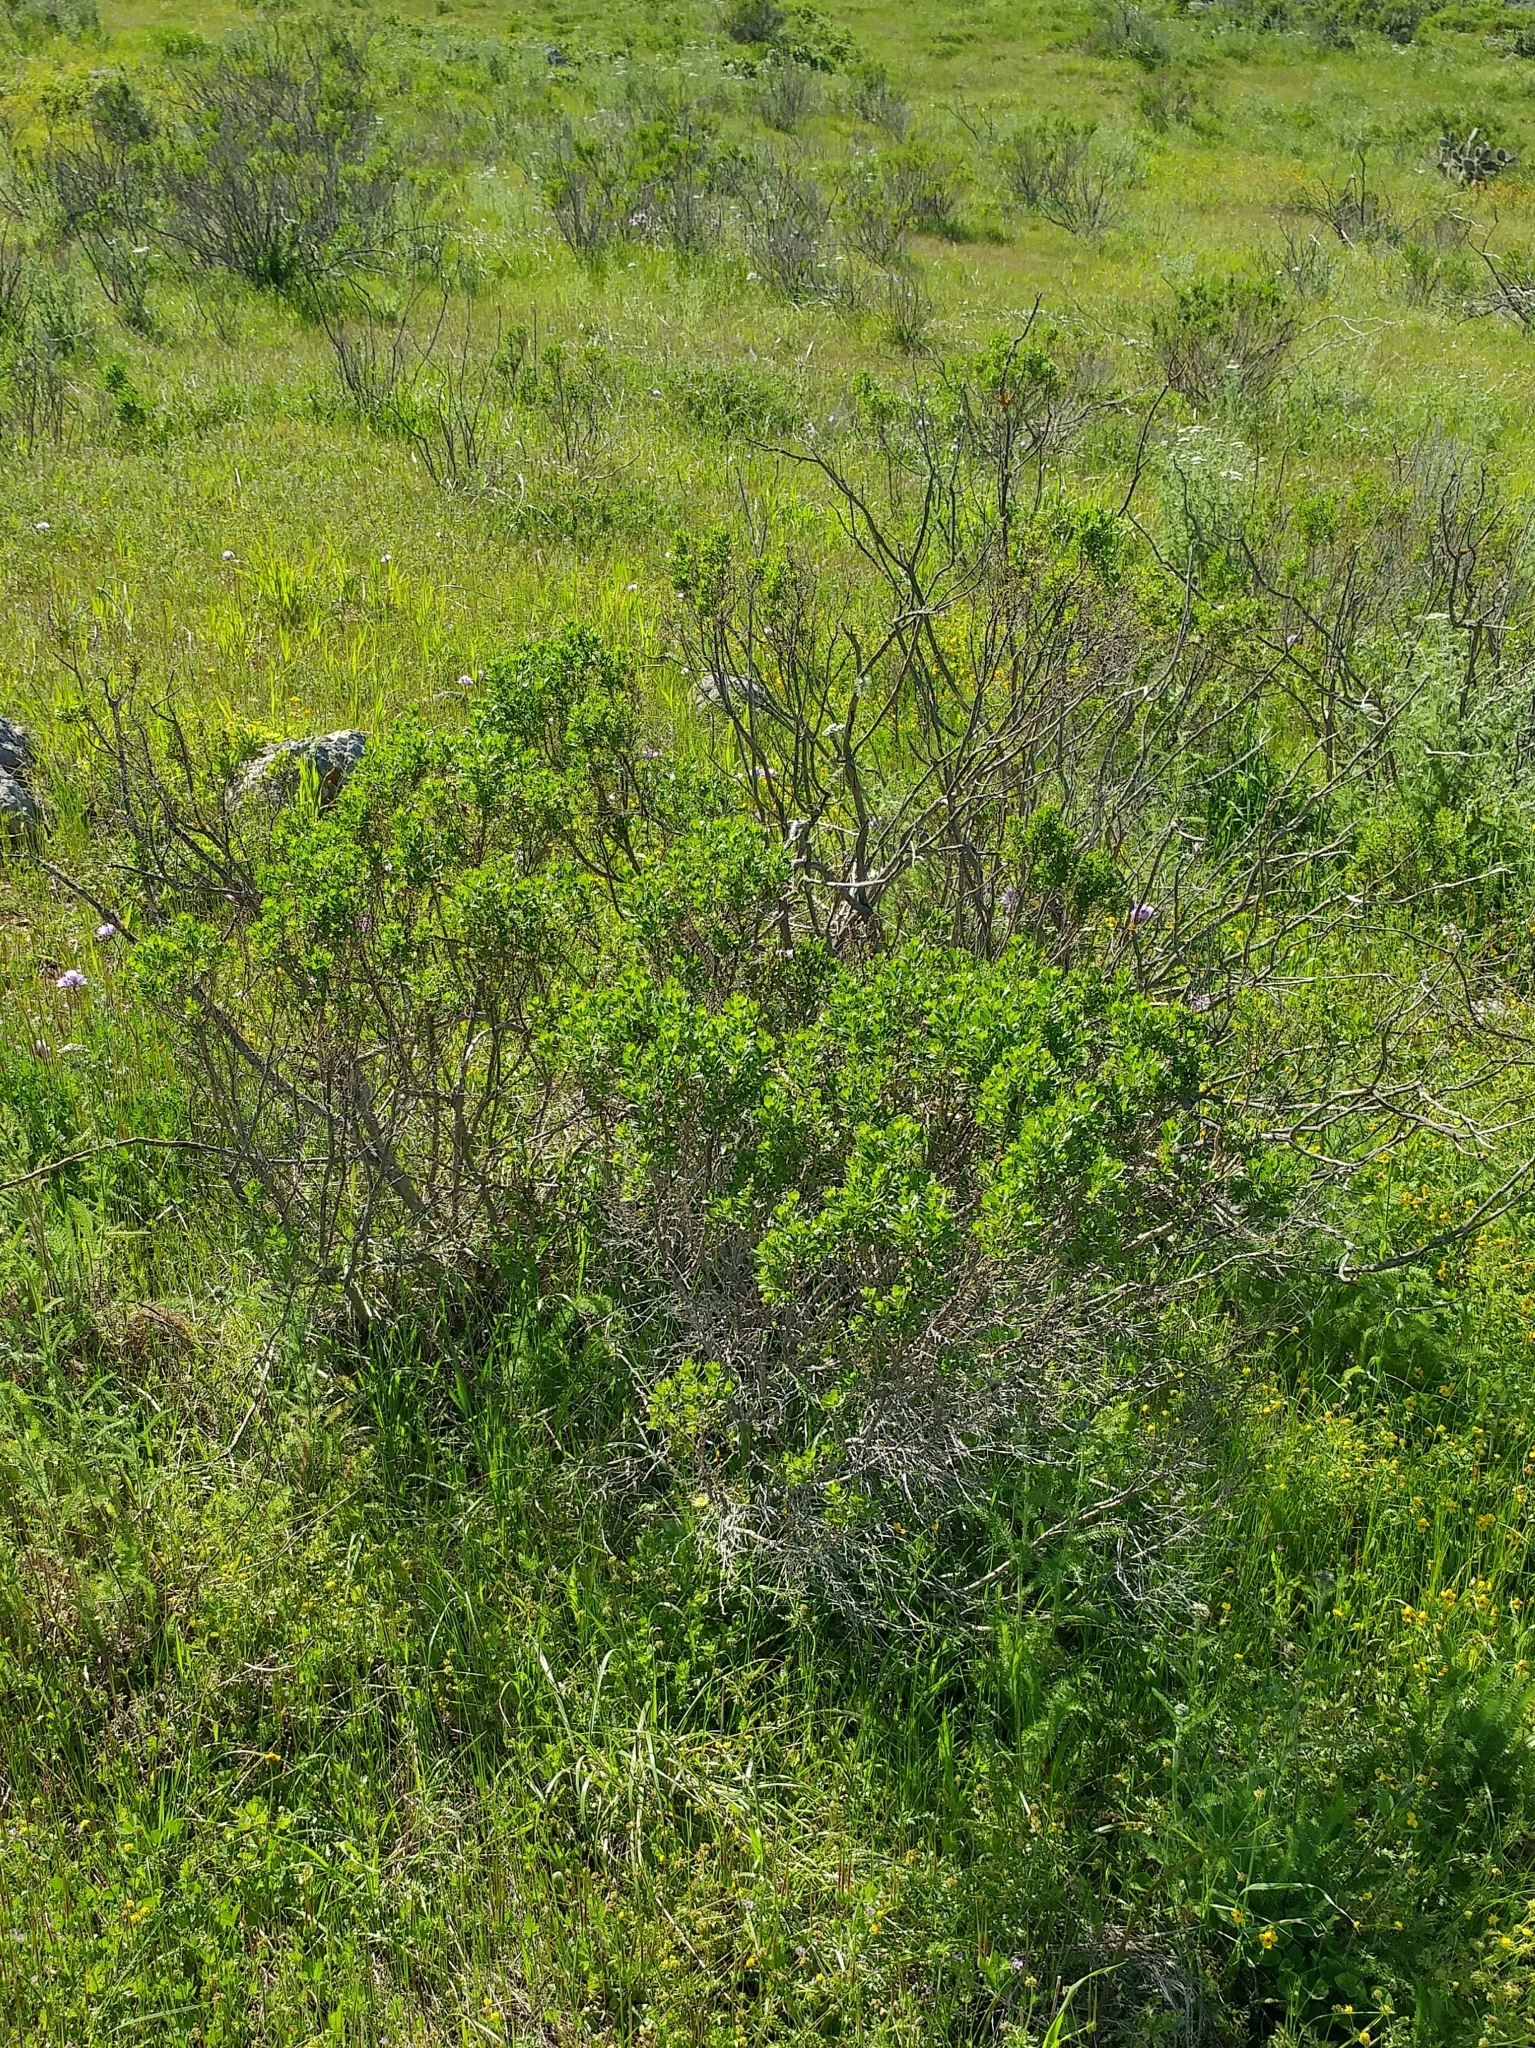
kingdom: Plantae
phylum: Tracheophyta
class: Magnoliopsida
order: Asterales
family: Asteraceae
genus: Baccharis
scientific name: Baccharis pilularis
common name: Coyotebrush
